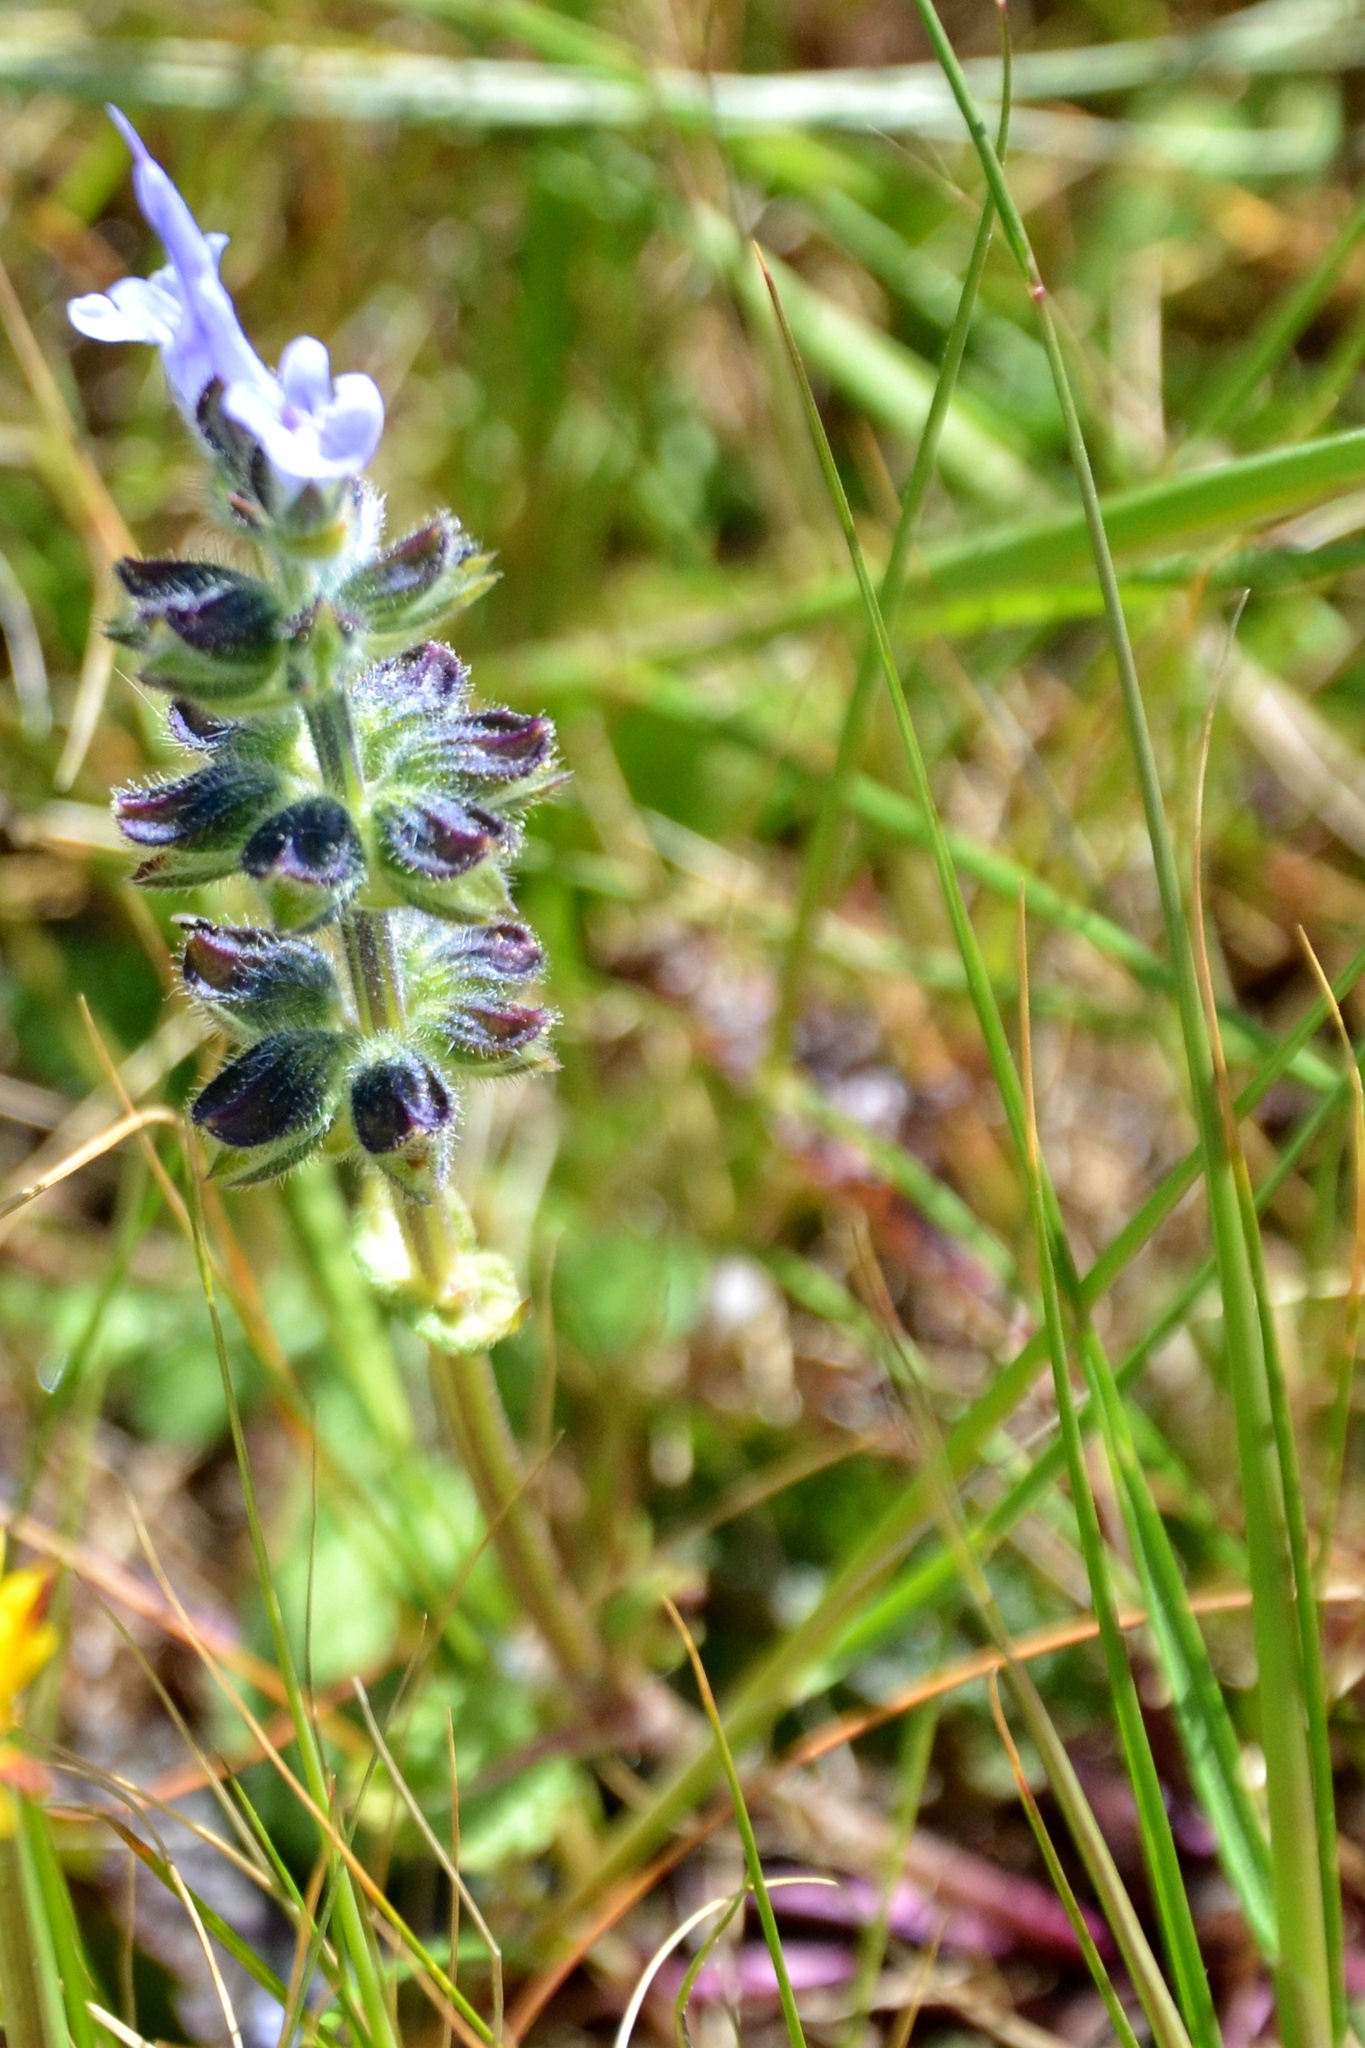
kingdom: Plantae
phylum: Tracheophyta
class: Magnoliopsida
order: Lamiales
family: Lamiaceae
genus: Salvia
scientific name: Salvia clandestina
